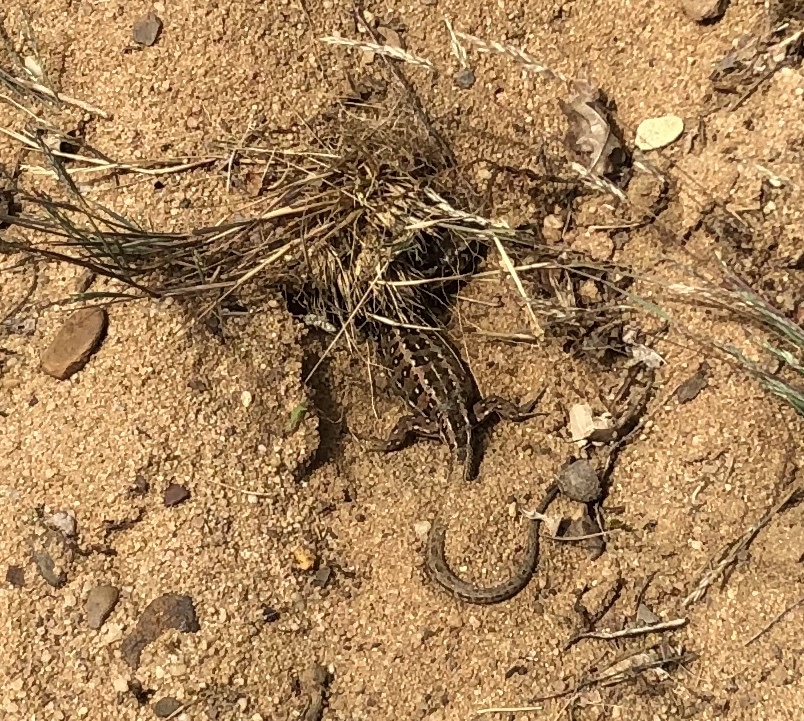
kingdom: Animalia
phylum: Chordata
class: Squamata
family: Lacertidae
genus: Lacerta
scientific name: Lacerta agilis
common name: Sand lizard
